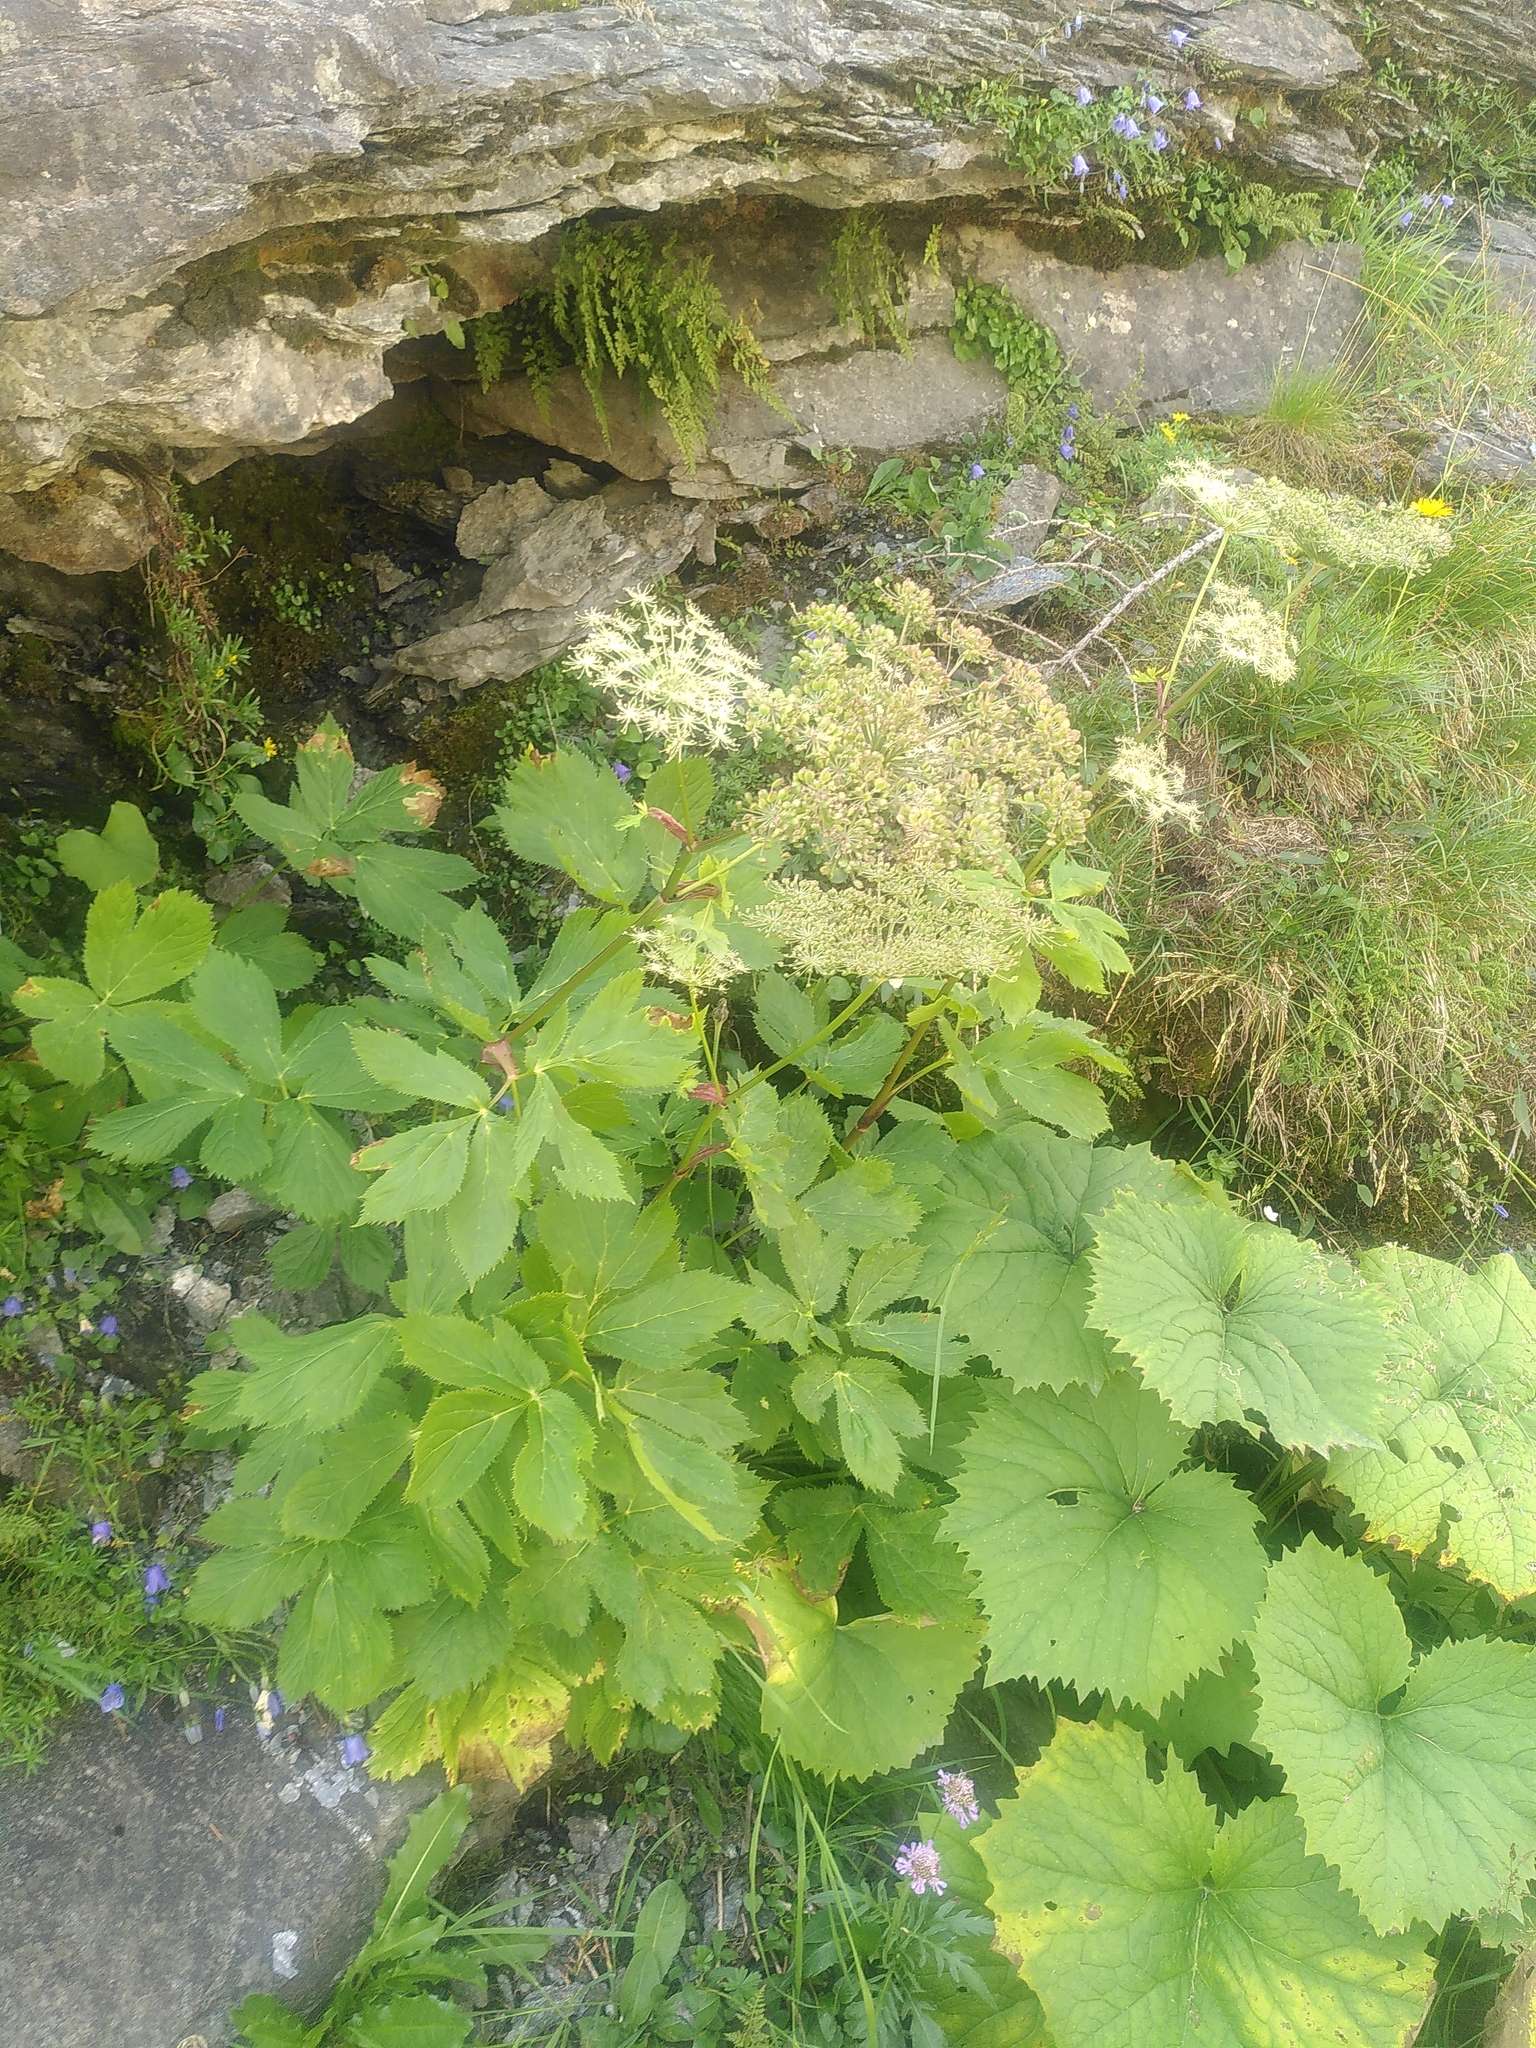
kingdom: Plantae
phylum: Tracheophyta
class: Magnoliopsida
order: Apiales
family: Apiaceae
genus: Imperatoria
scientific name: Imperatoria ostruthium
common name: Masterwort
